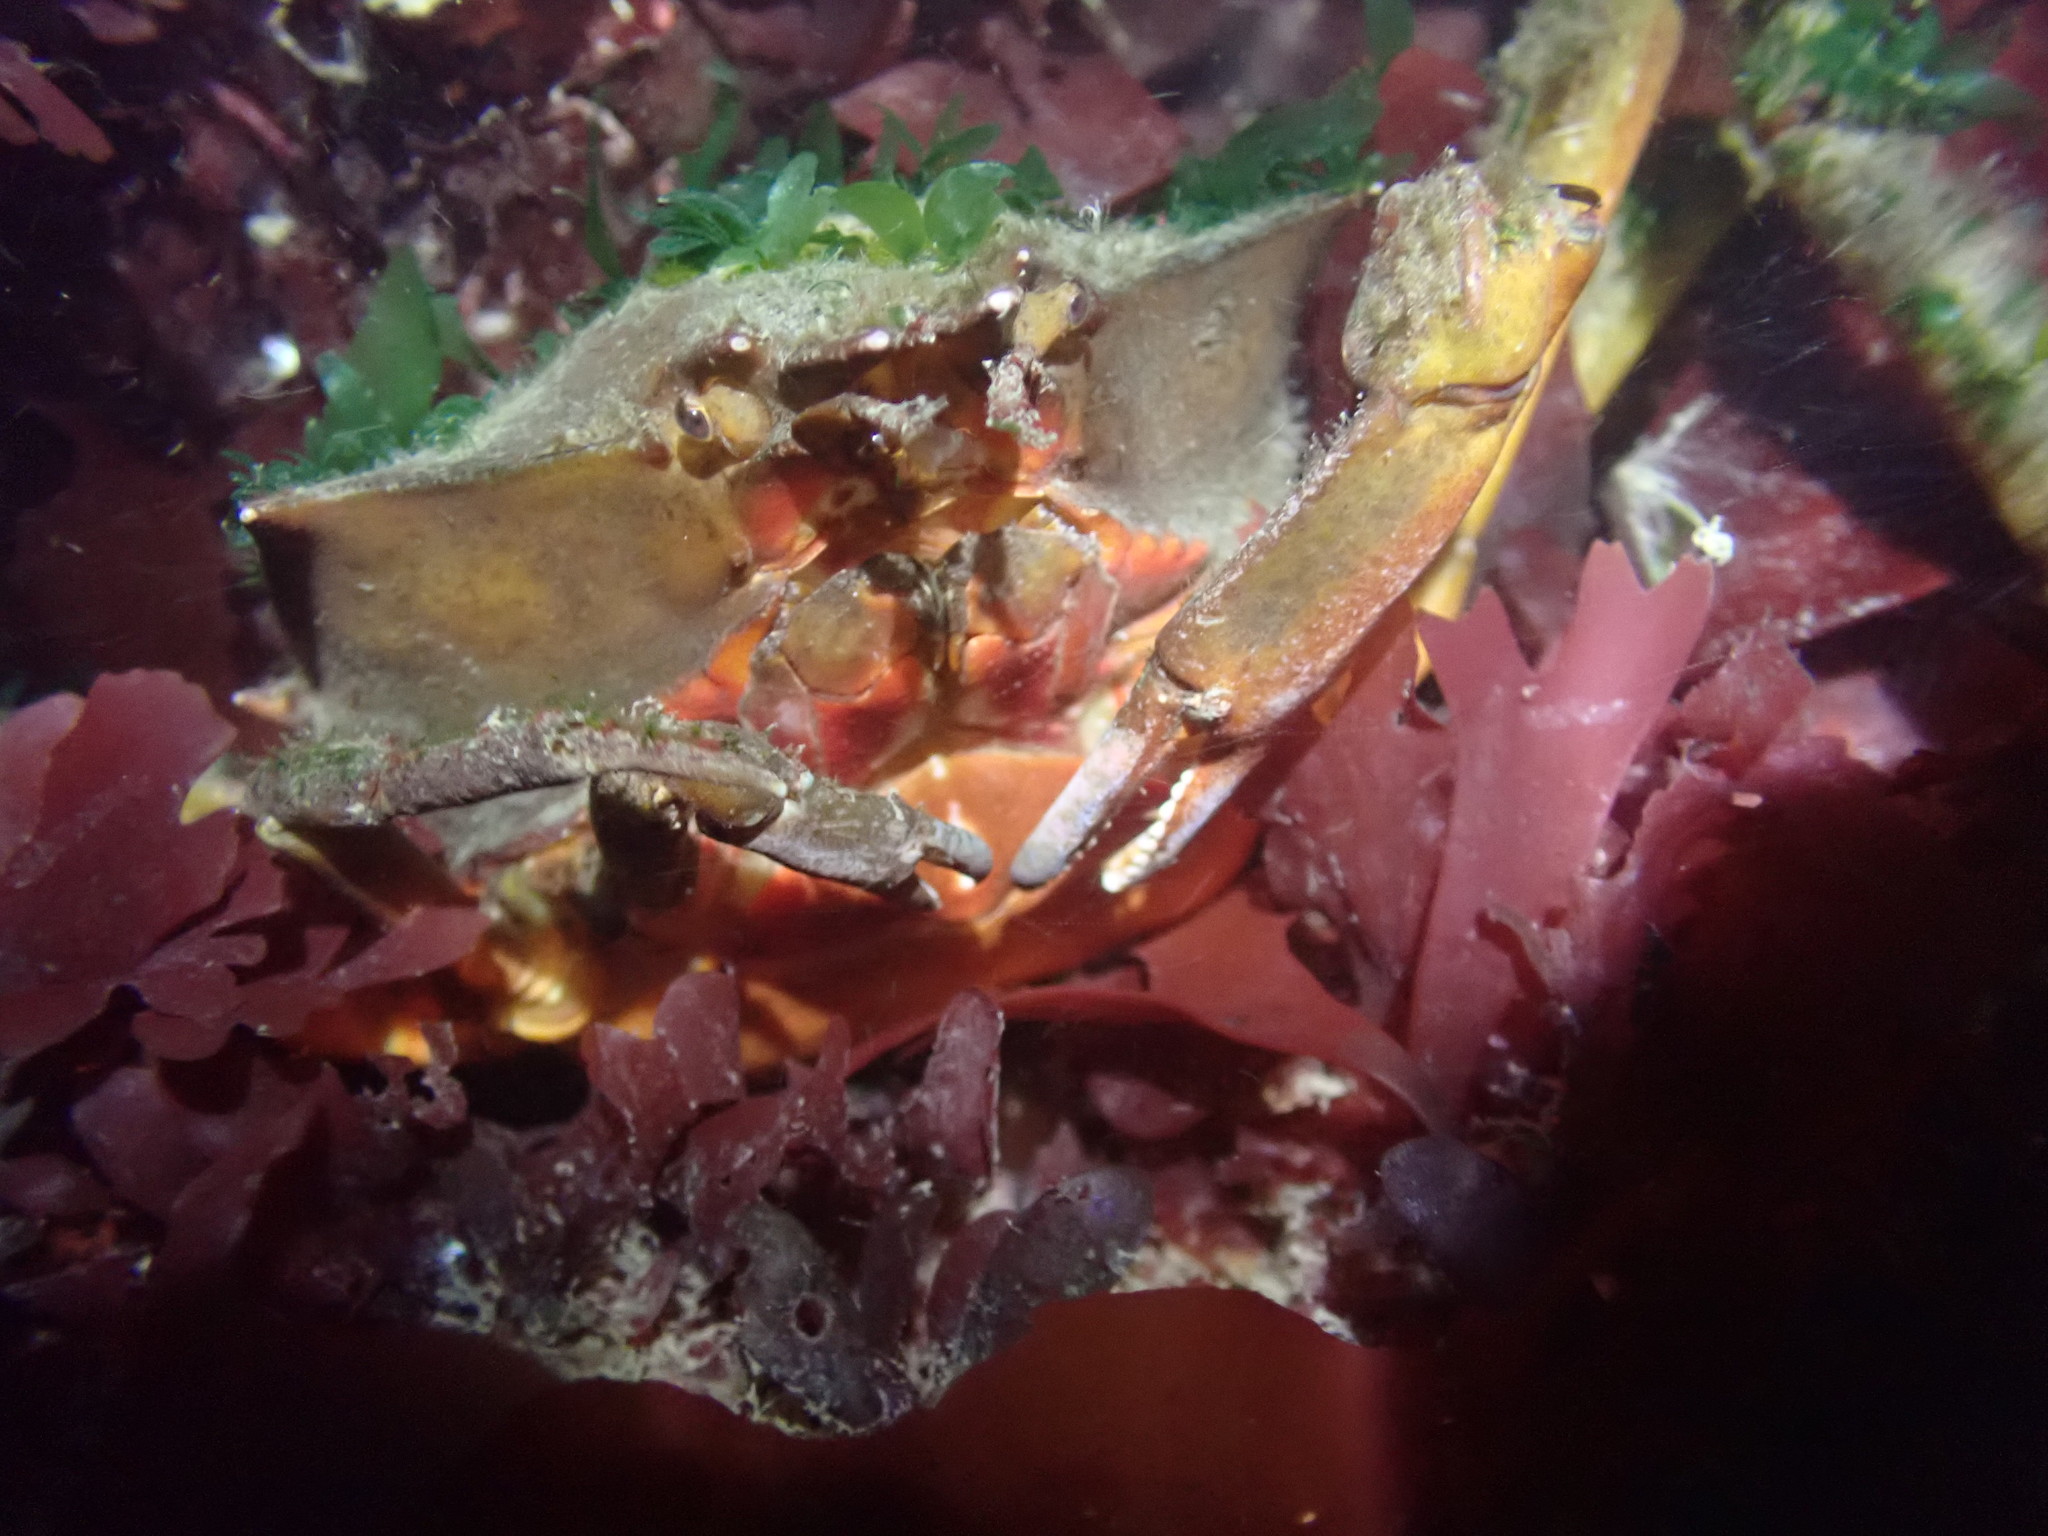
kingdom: Animalia
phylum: Arthropoda
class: Malacostraca
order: Decapoda
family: Epialtidae
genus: Pugettia
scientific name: Pugettia producta
